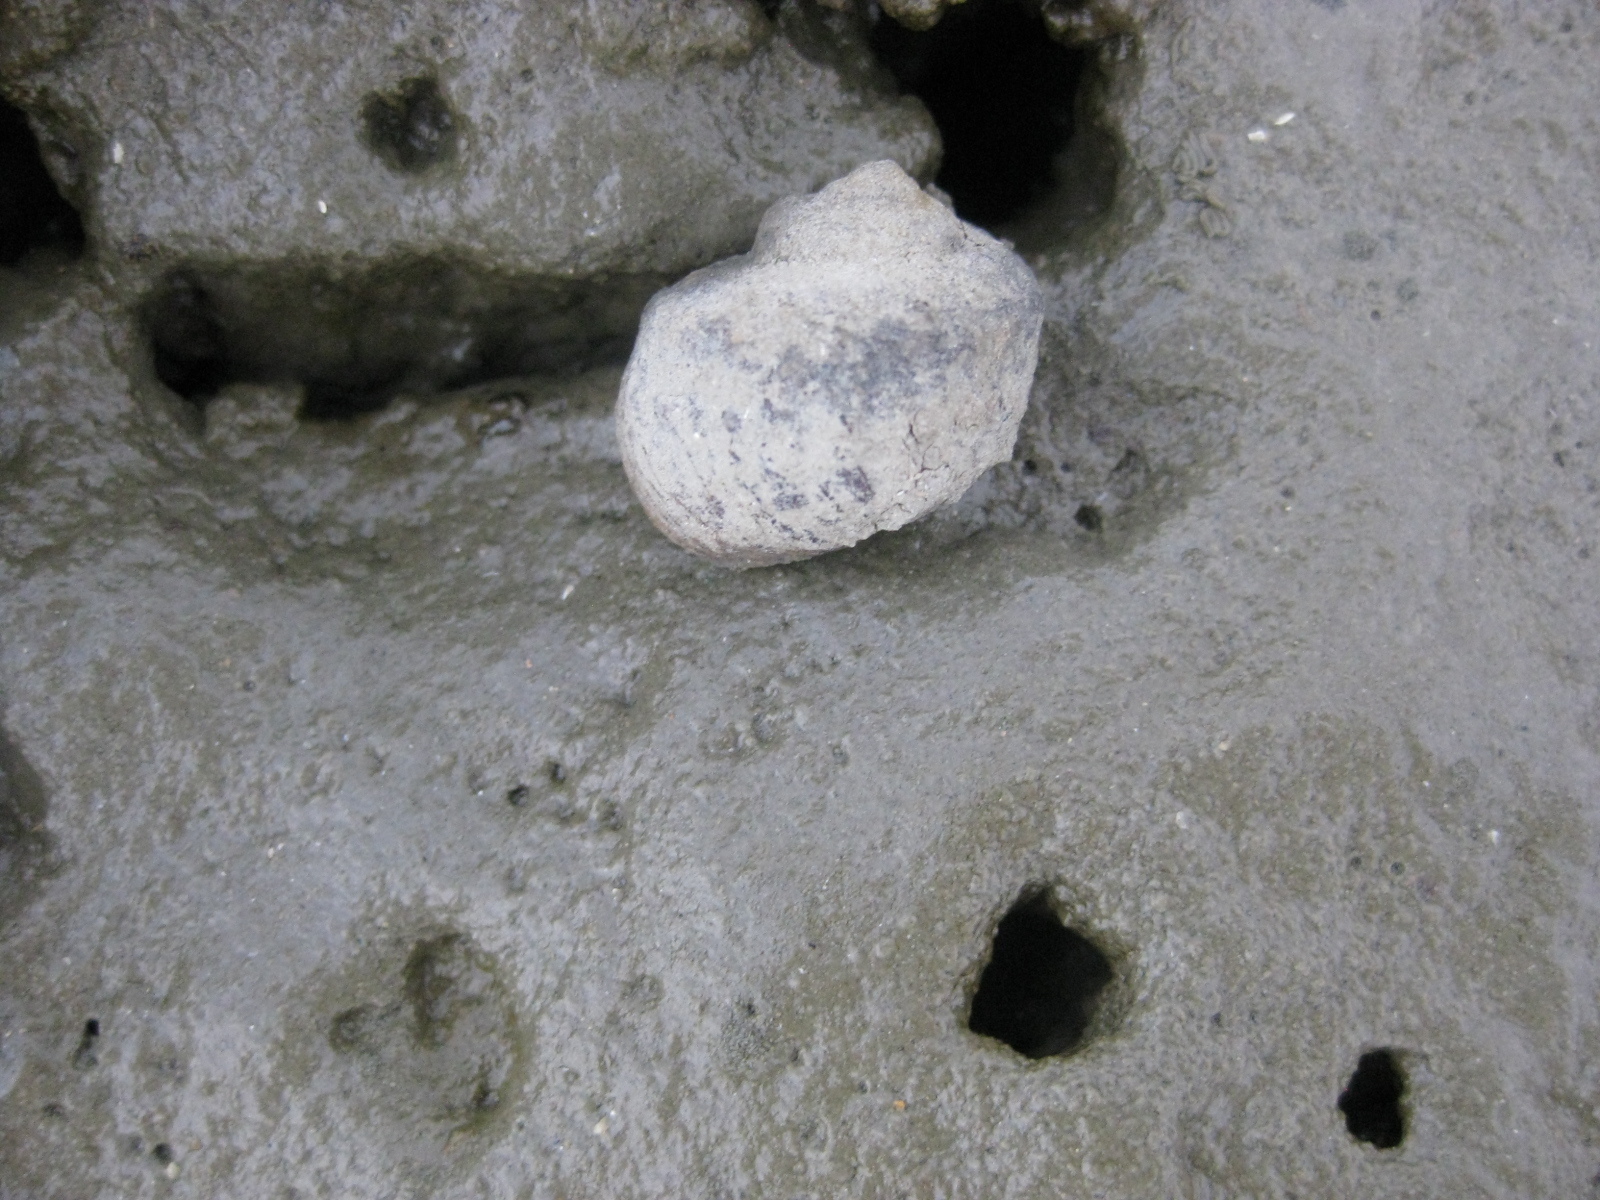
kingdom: Animalia
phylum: Mollusca
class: Gastropoda
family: Amphibolidae
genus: Amphibola
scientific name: Amphibola crenata
